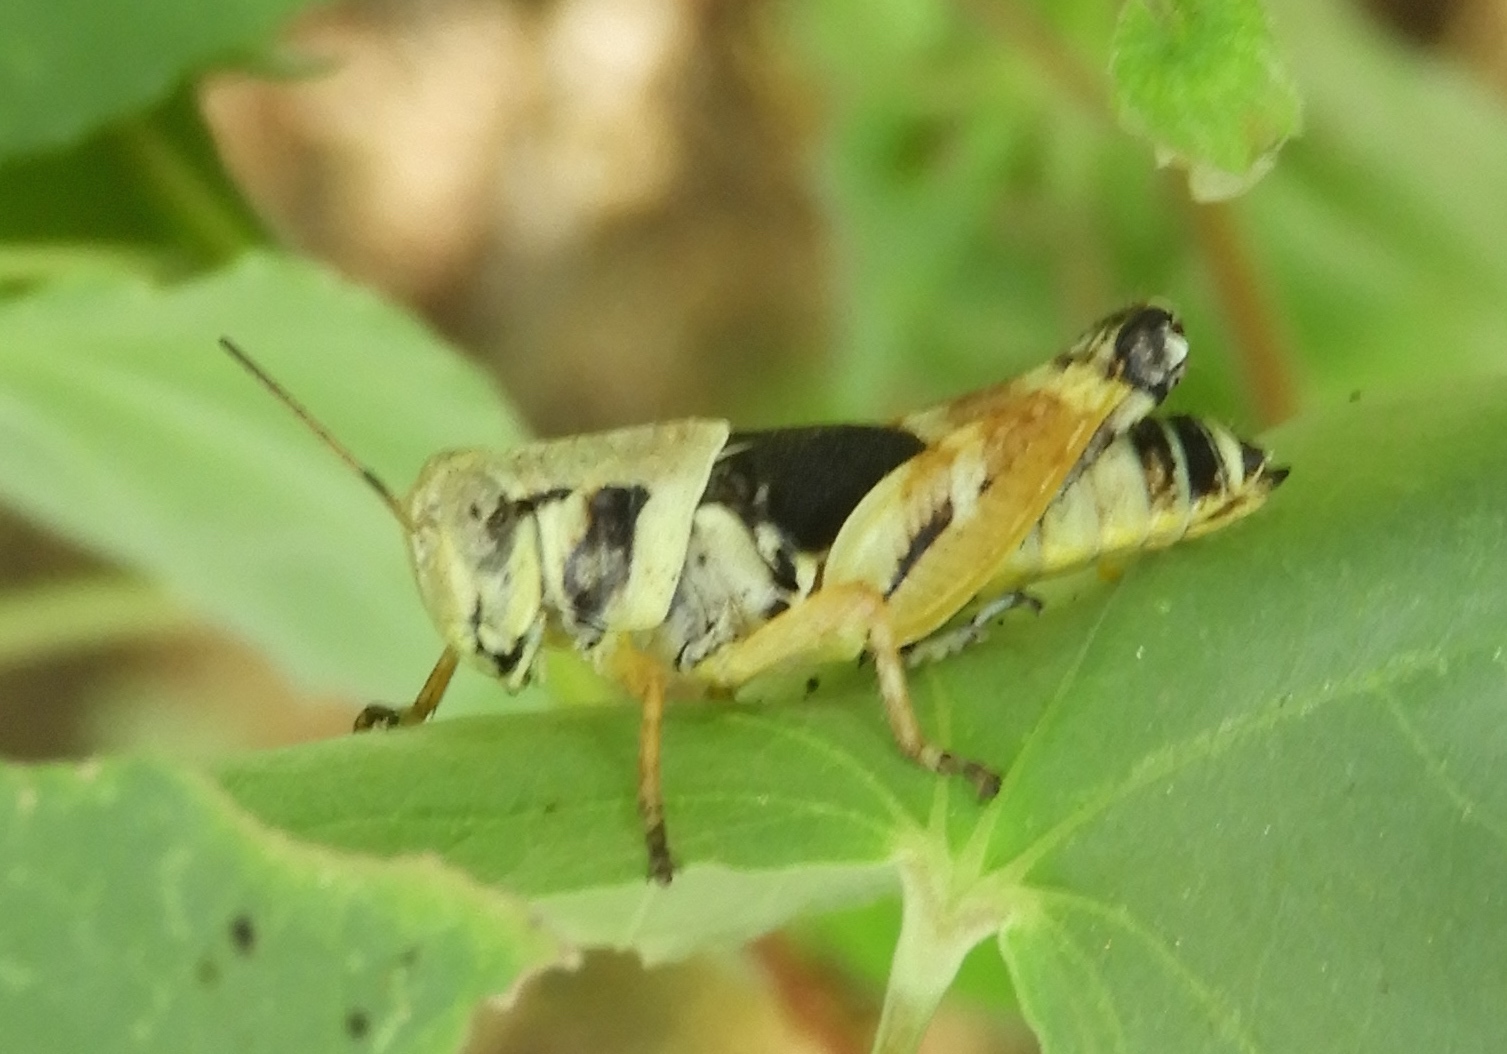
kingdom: Animalia
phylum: Arthropoda
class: Insecta
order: Orthoptera
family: Acrididae
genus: Aidemona
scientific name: Aidemona azteca
